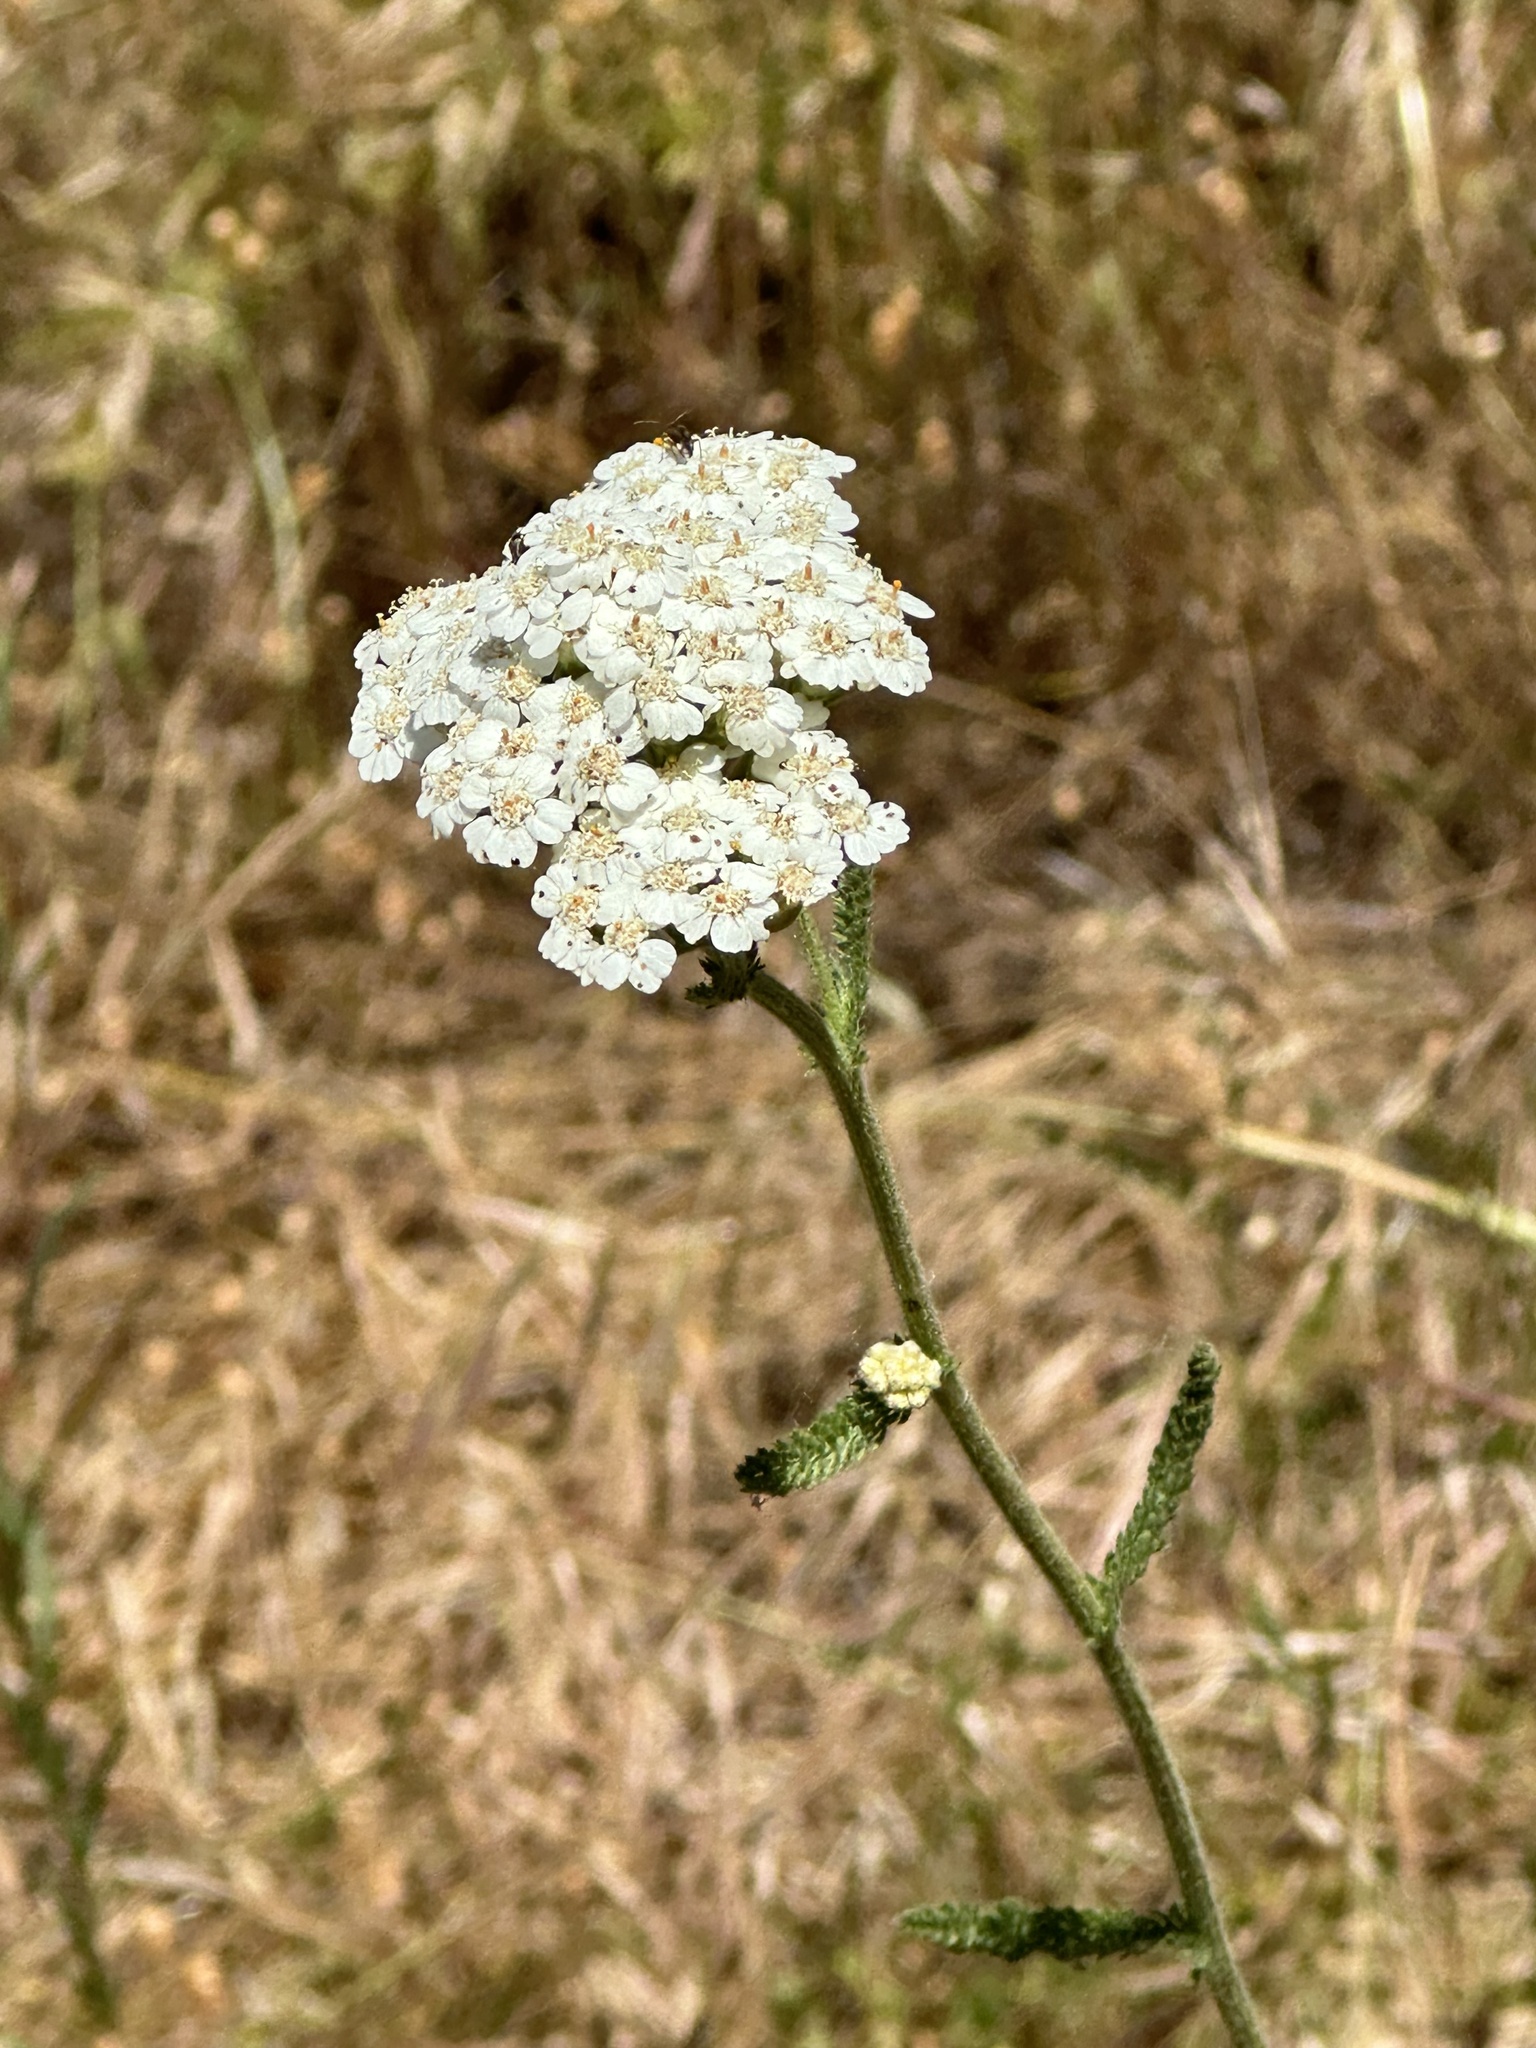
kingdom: Plantae
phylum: Tracheophyta
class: Magnoliopsida
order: Asterales
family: Asteraceae
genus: Achillea
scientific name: Achillea millefolium
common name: Yarrow
